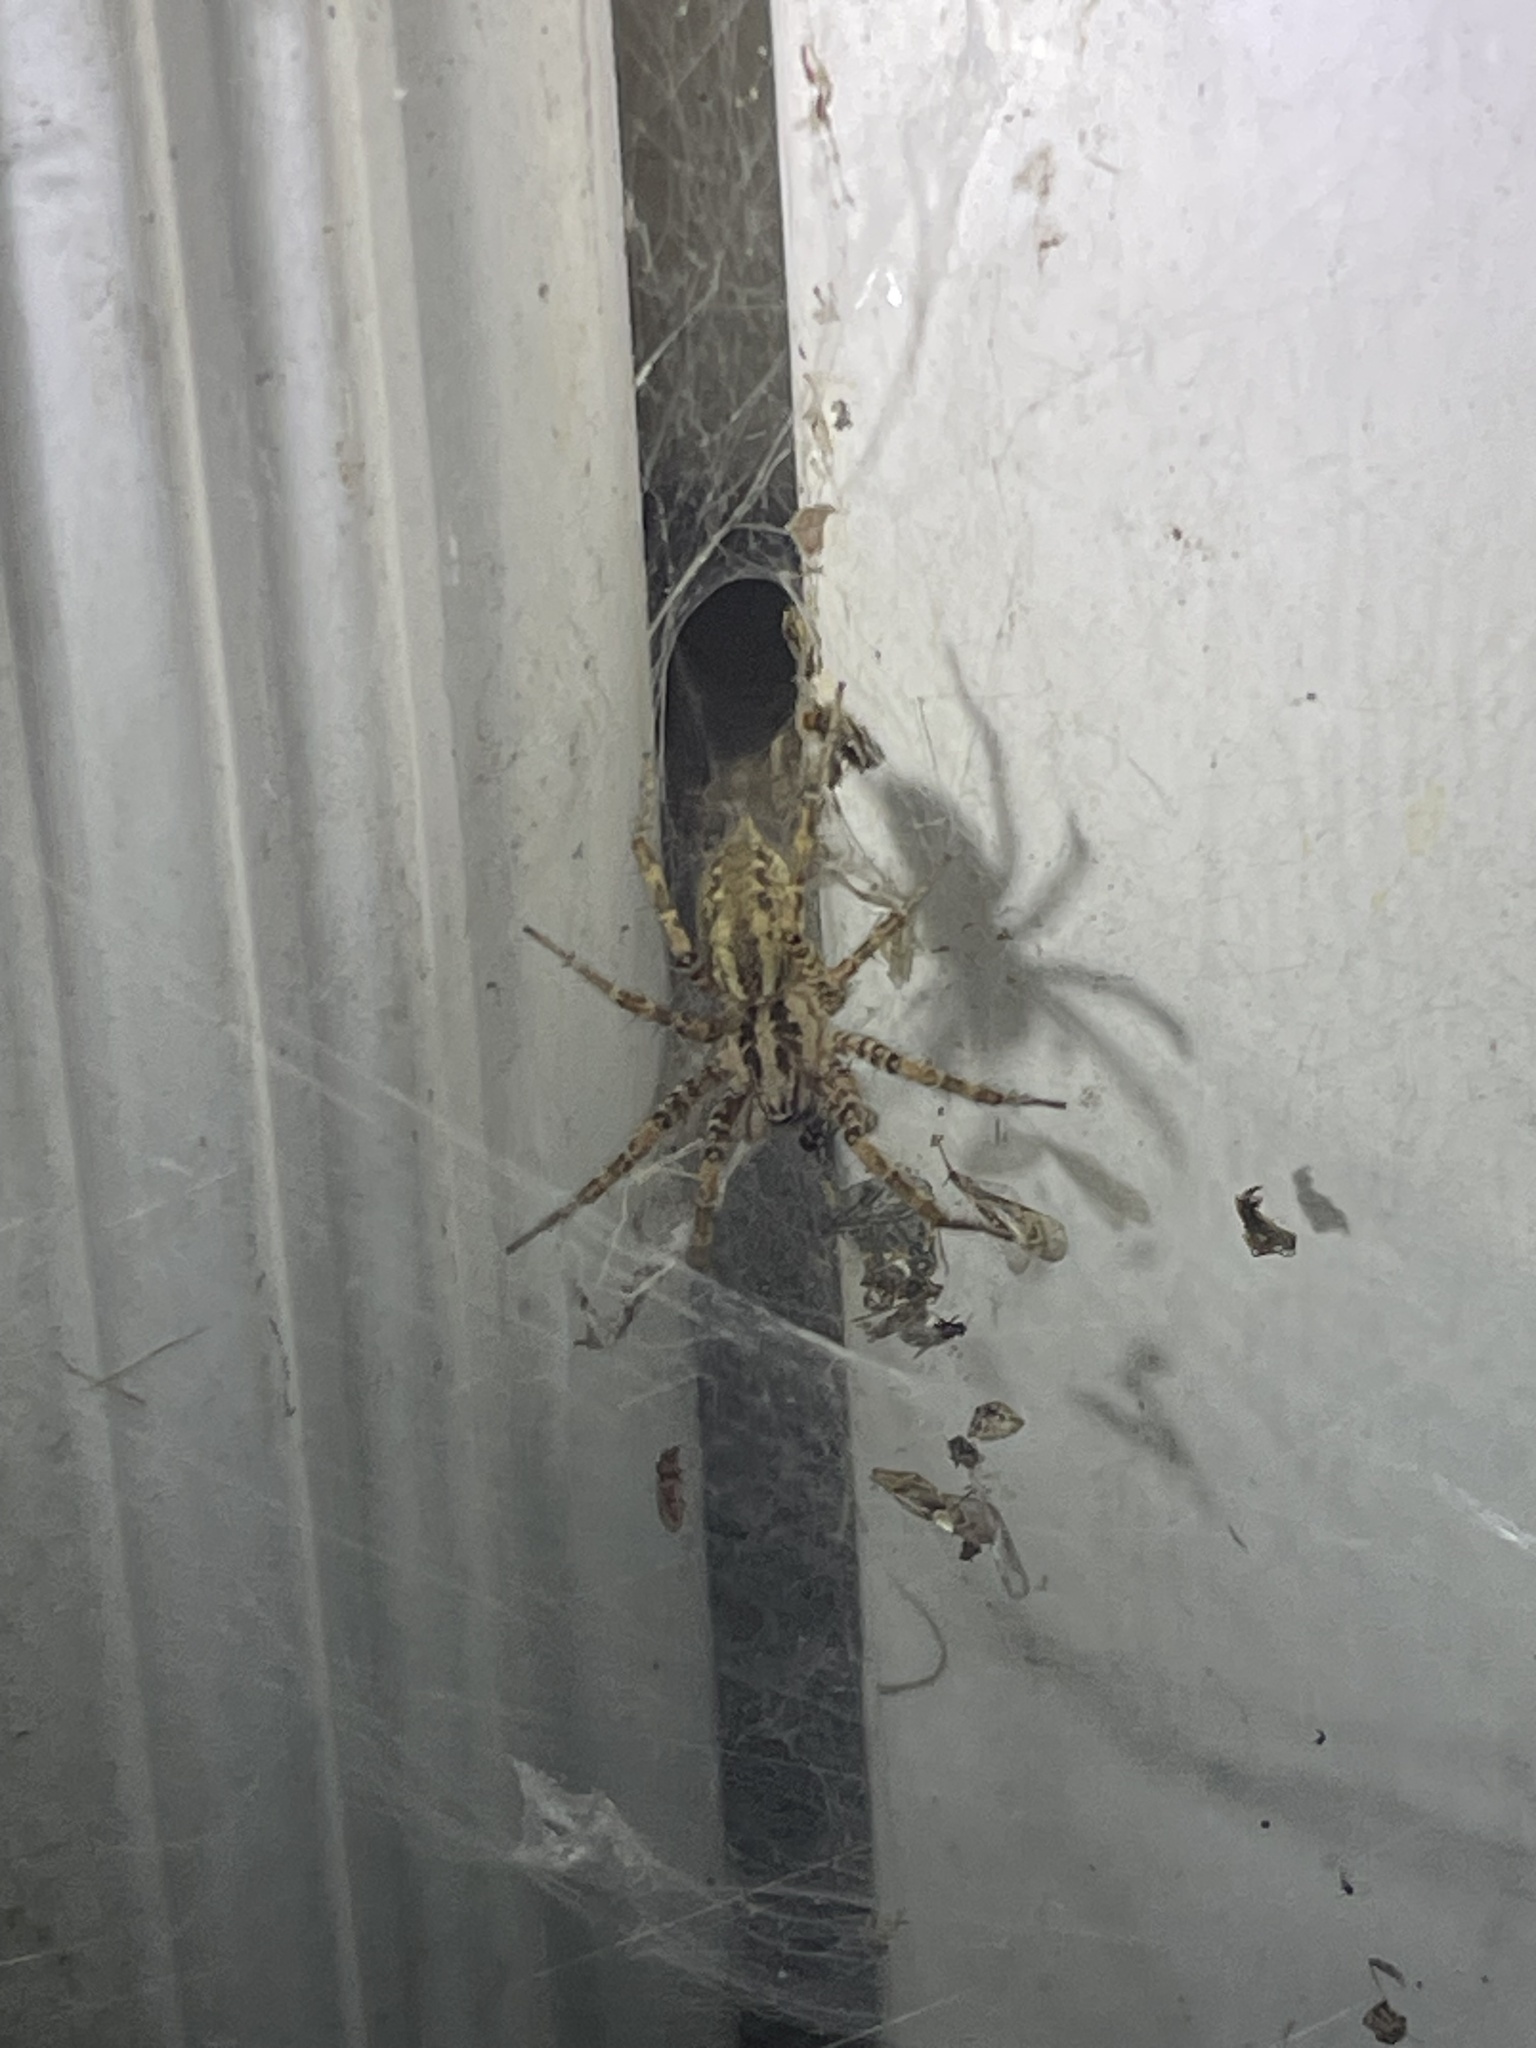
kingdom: Animalia
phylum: Arthropoda
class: Arachnida
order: Araneae
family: Agelenidae
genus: Barronopsis
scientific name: Barronopsis jeffersi
